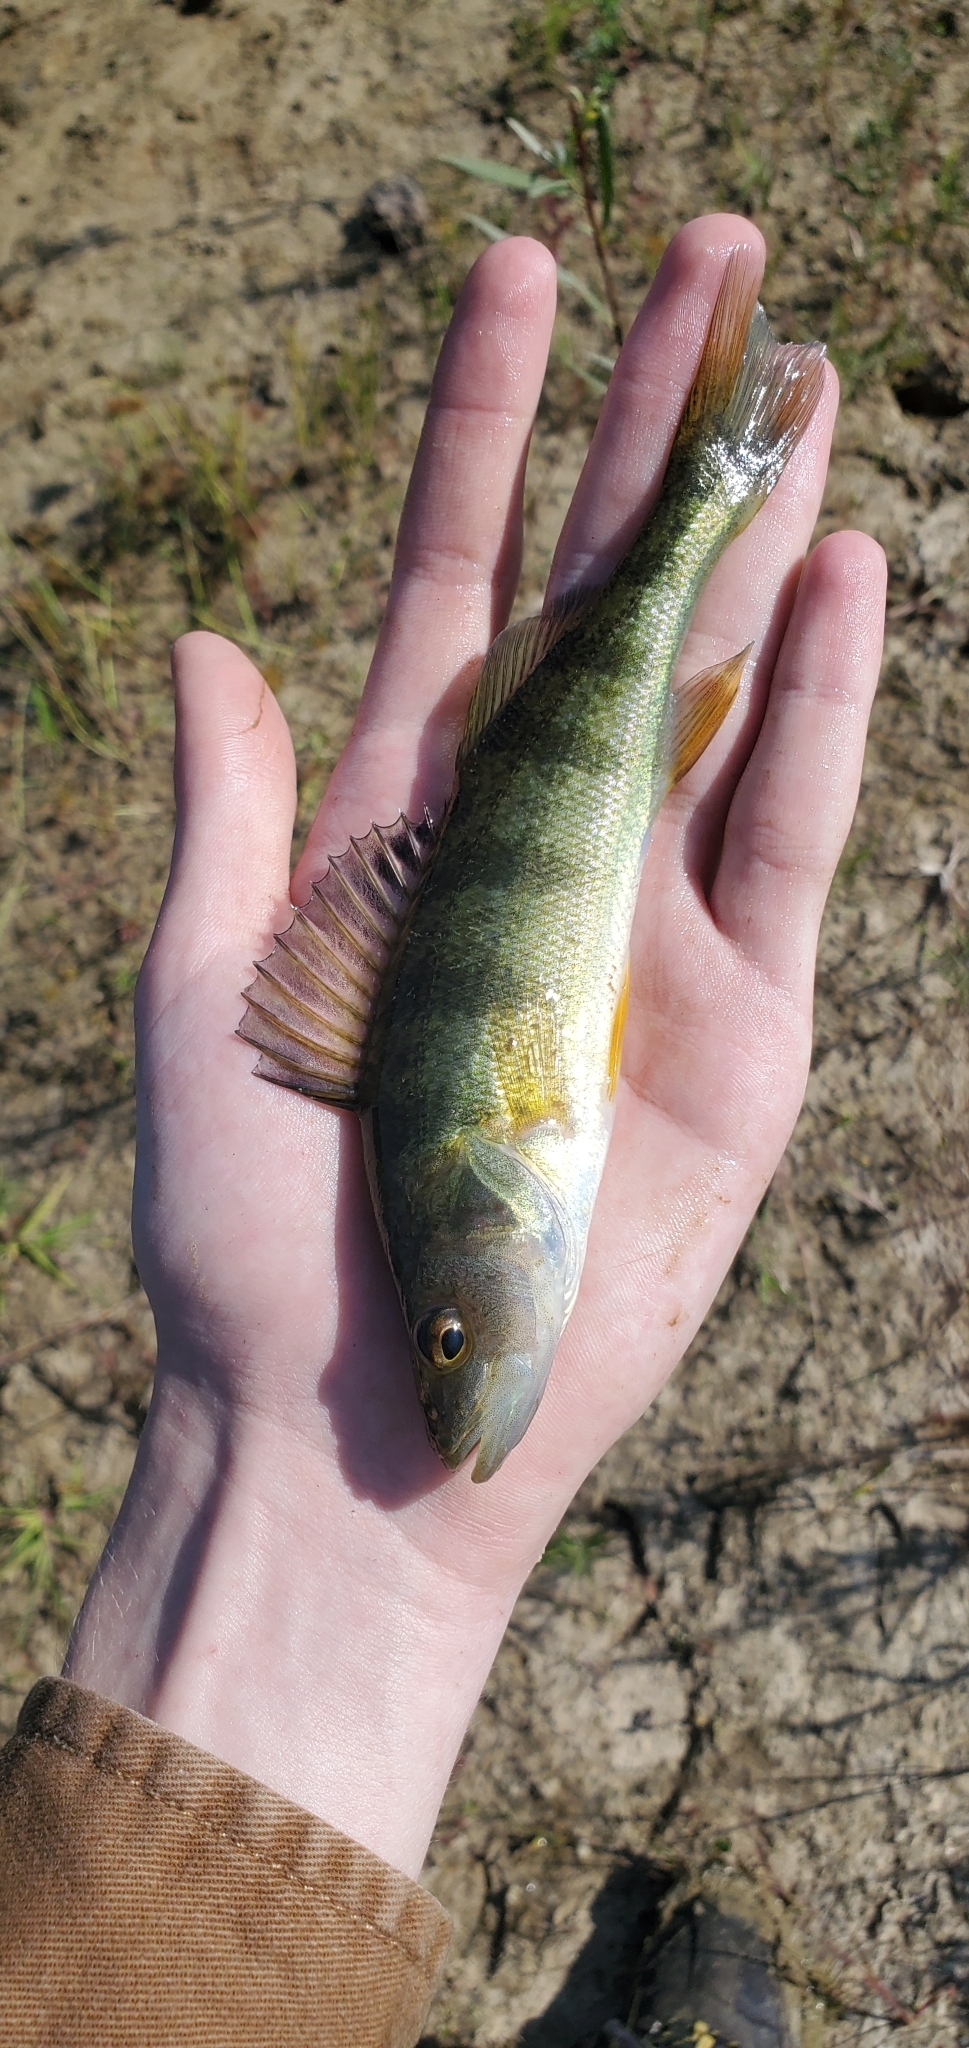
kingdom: Animalia
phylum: Chordata
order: Perciformes
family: Percidae
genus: Perca
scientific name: Perca flavescens
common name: Yellow perch
